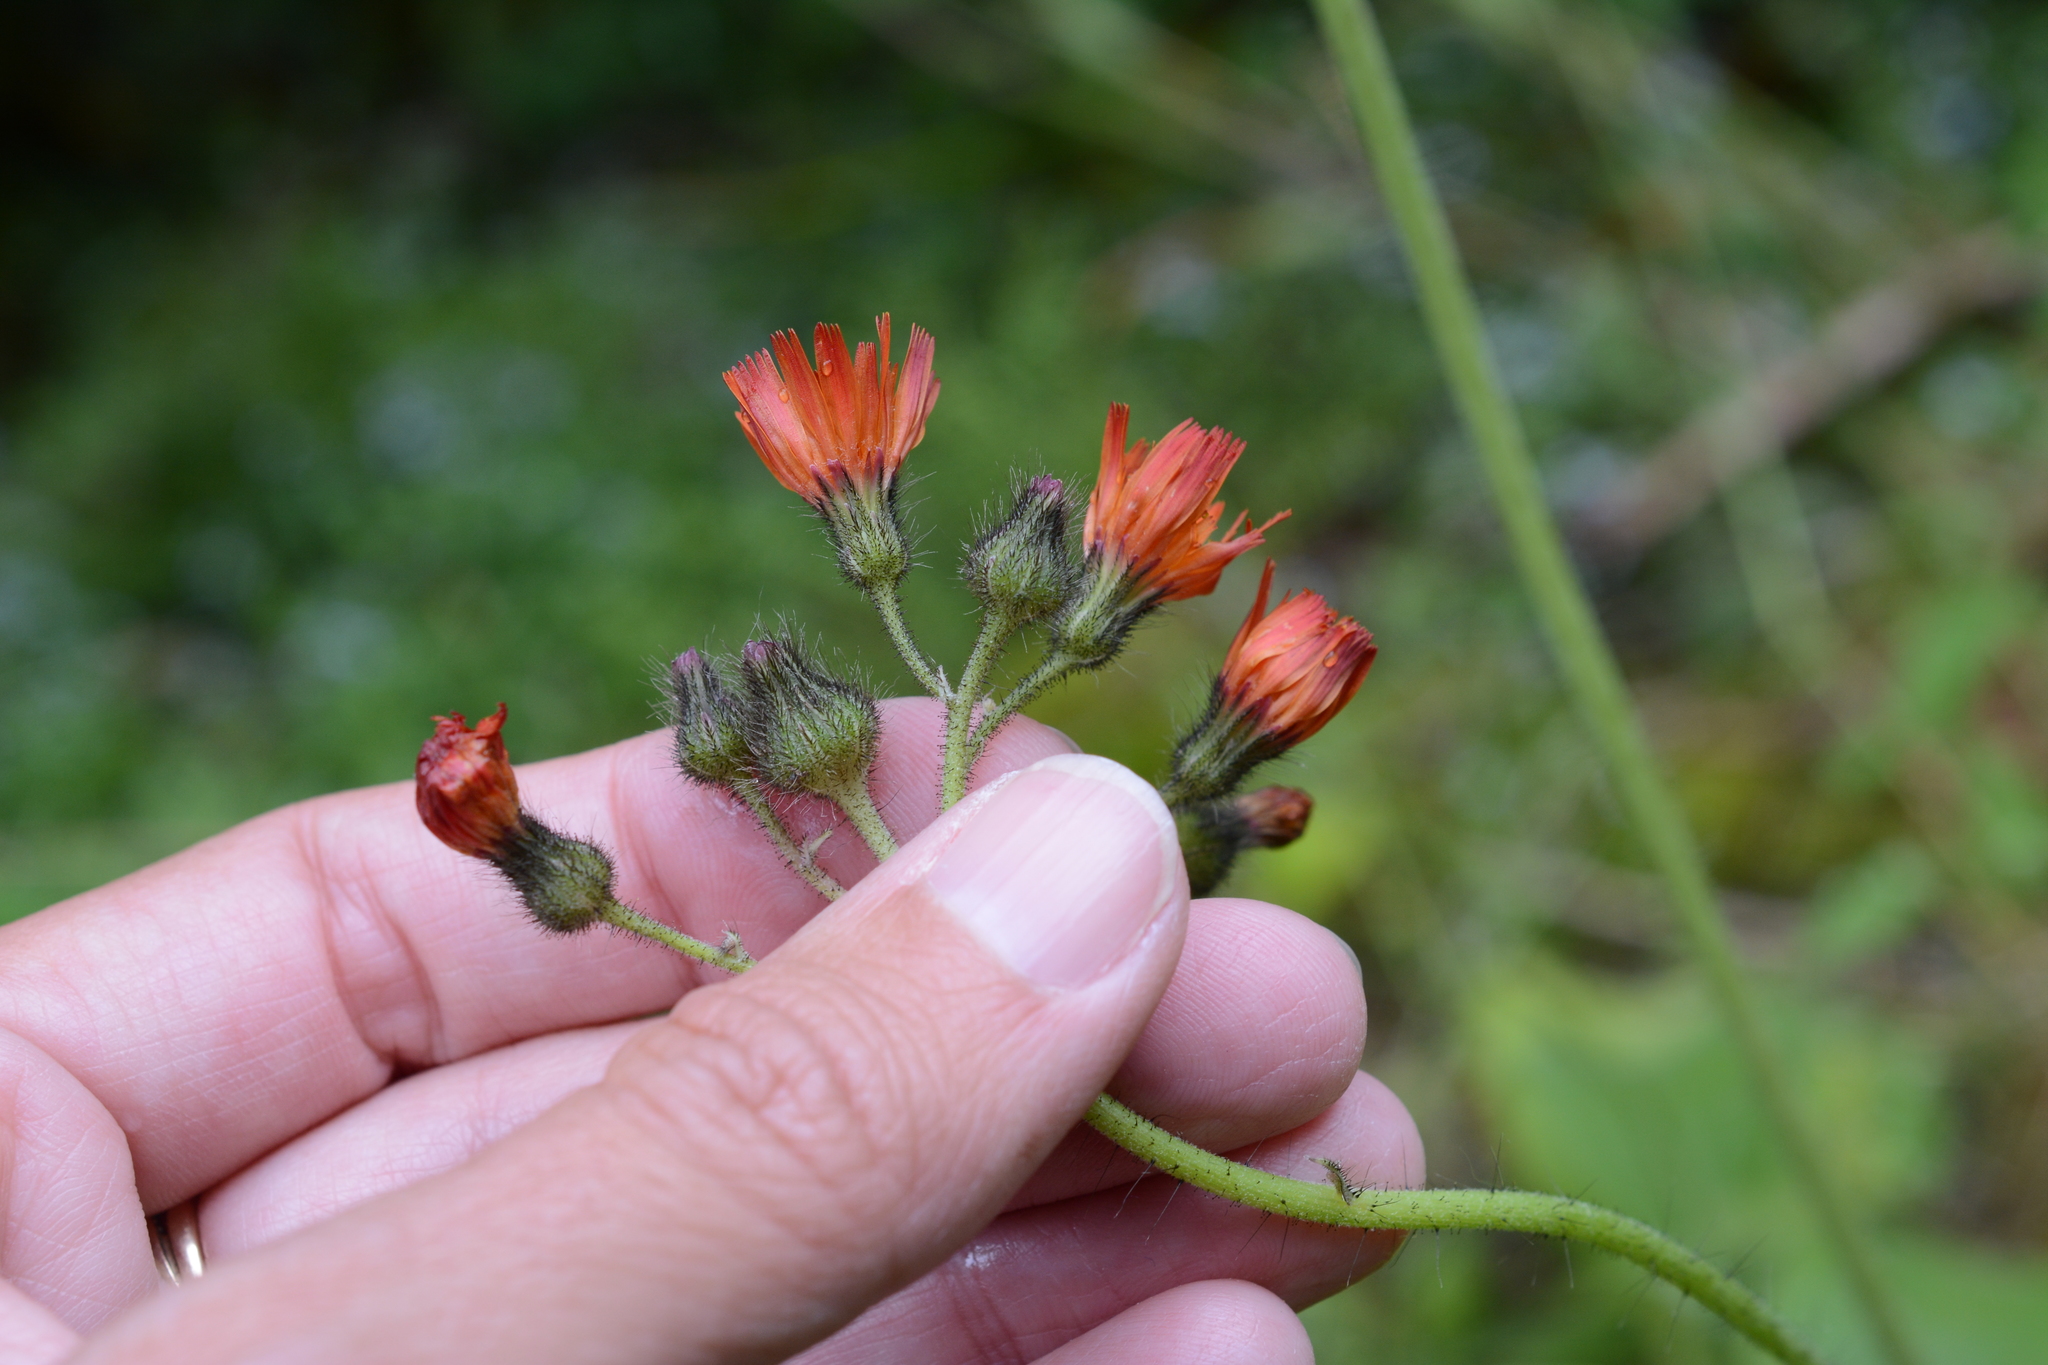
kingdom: Plantae
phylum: Tracheophyta
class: Magnoliopsida
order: Asterales
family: Asteraceae
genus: Pilosella
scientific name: Pilosella aurantiaca
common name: Fox-and-cubs
